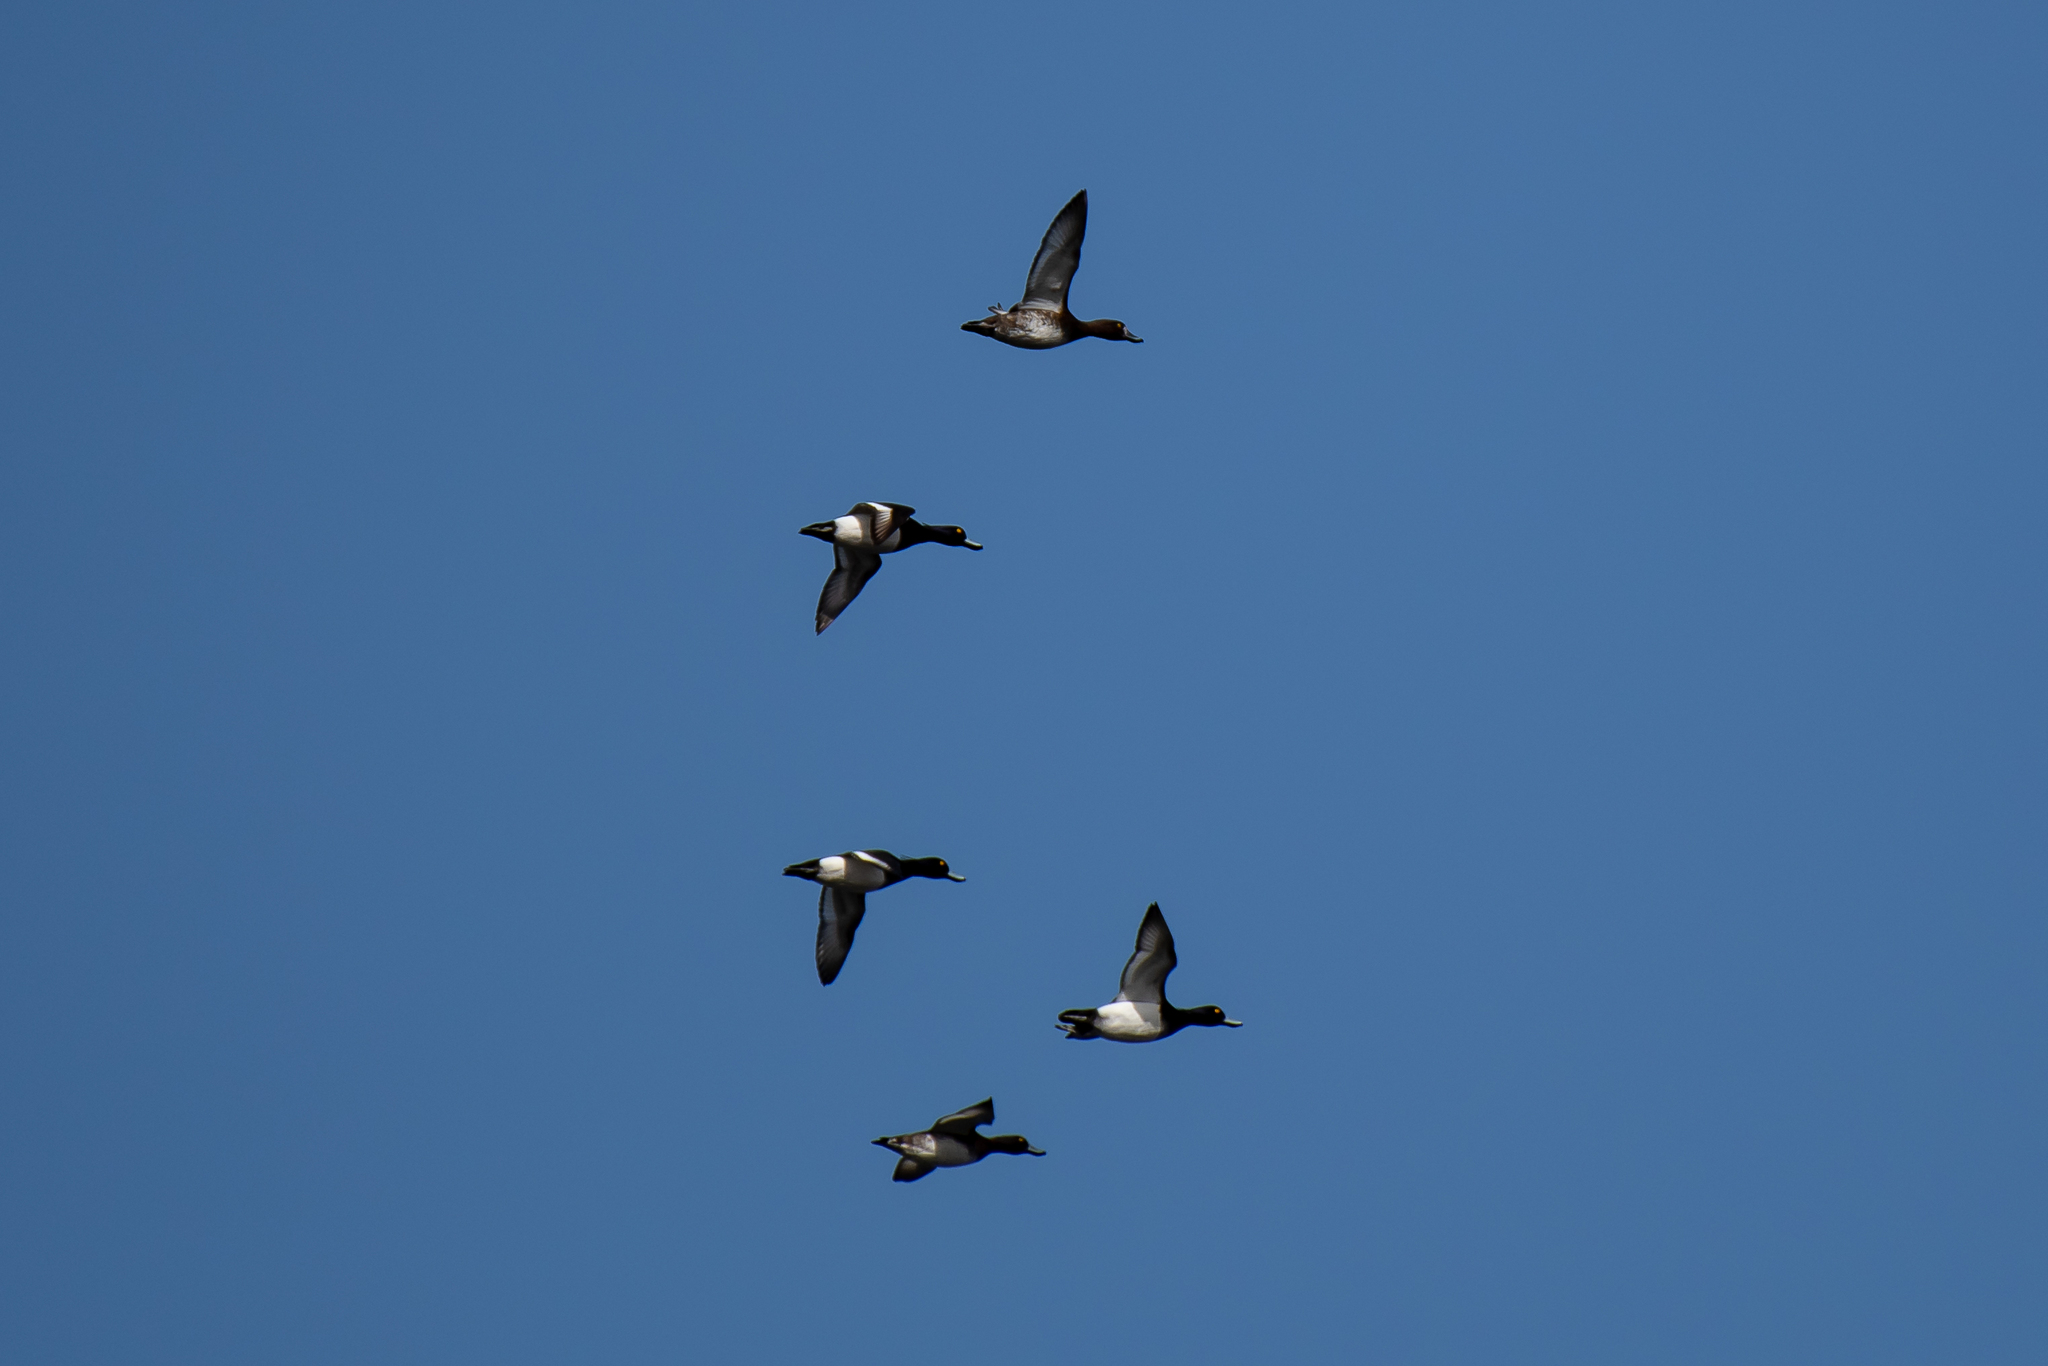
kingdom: Animalia
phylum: Chordata
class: Aves
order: Anseriformes
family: Anatidae
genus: Aythya
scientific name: Aythya fuligula
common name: Tufted duck
